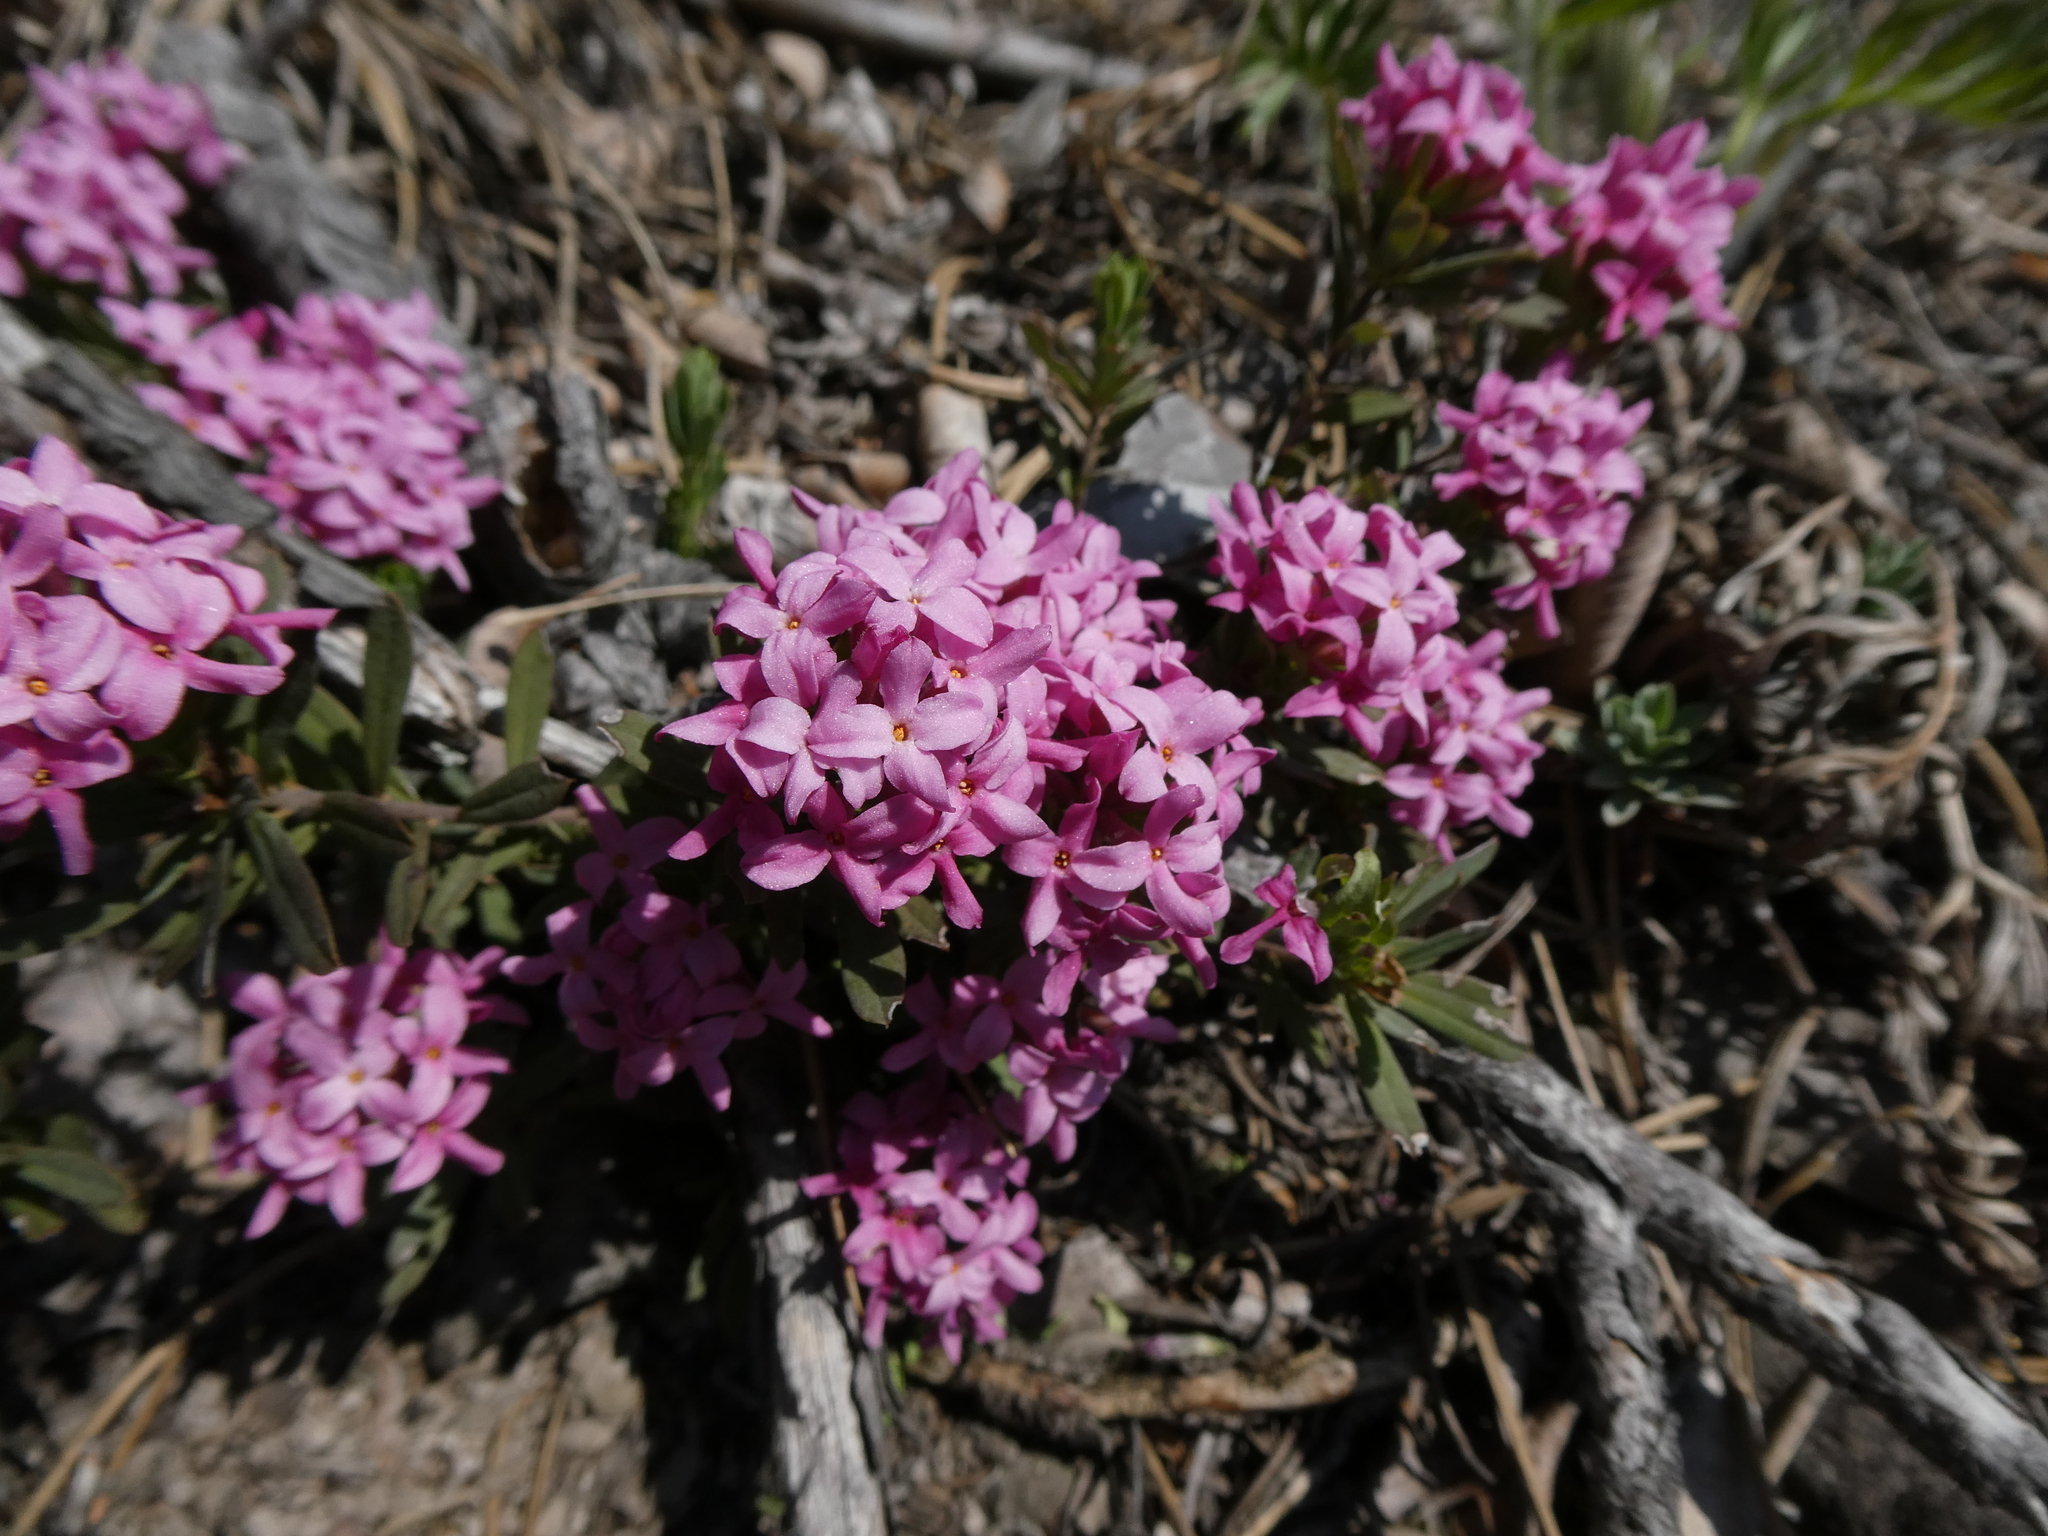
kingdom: Plantae
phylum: Tracheophyta
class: Magnoliopsida
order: Malvales
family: Thymelaeaceae
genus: Daphne
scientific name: Daphne cneorum
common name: Garland-flower
